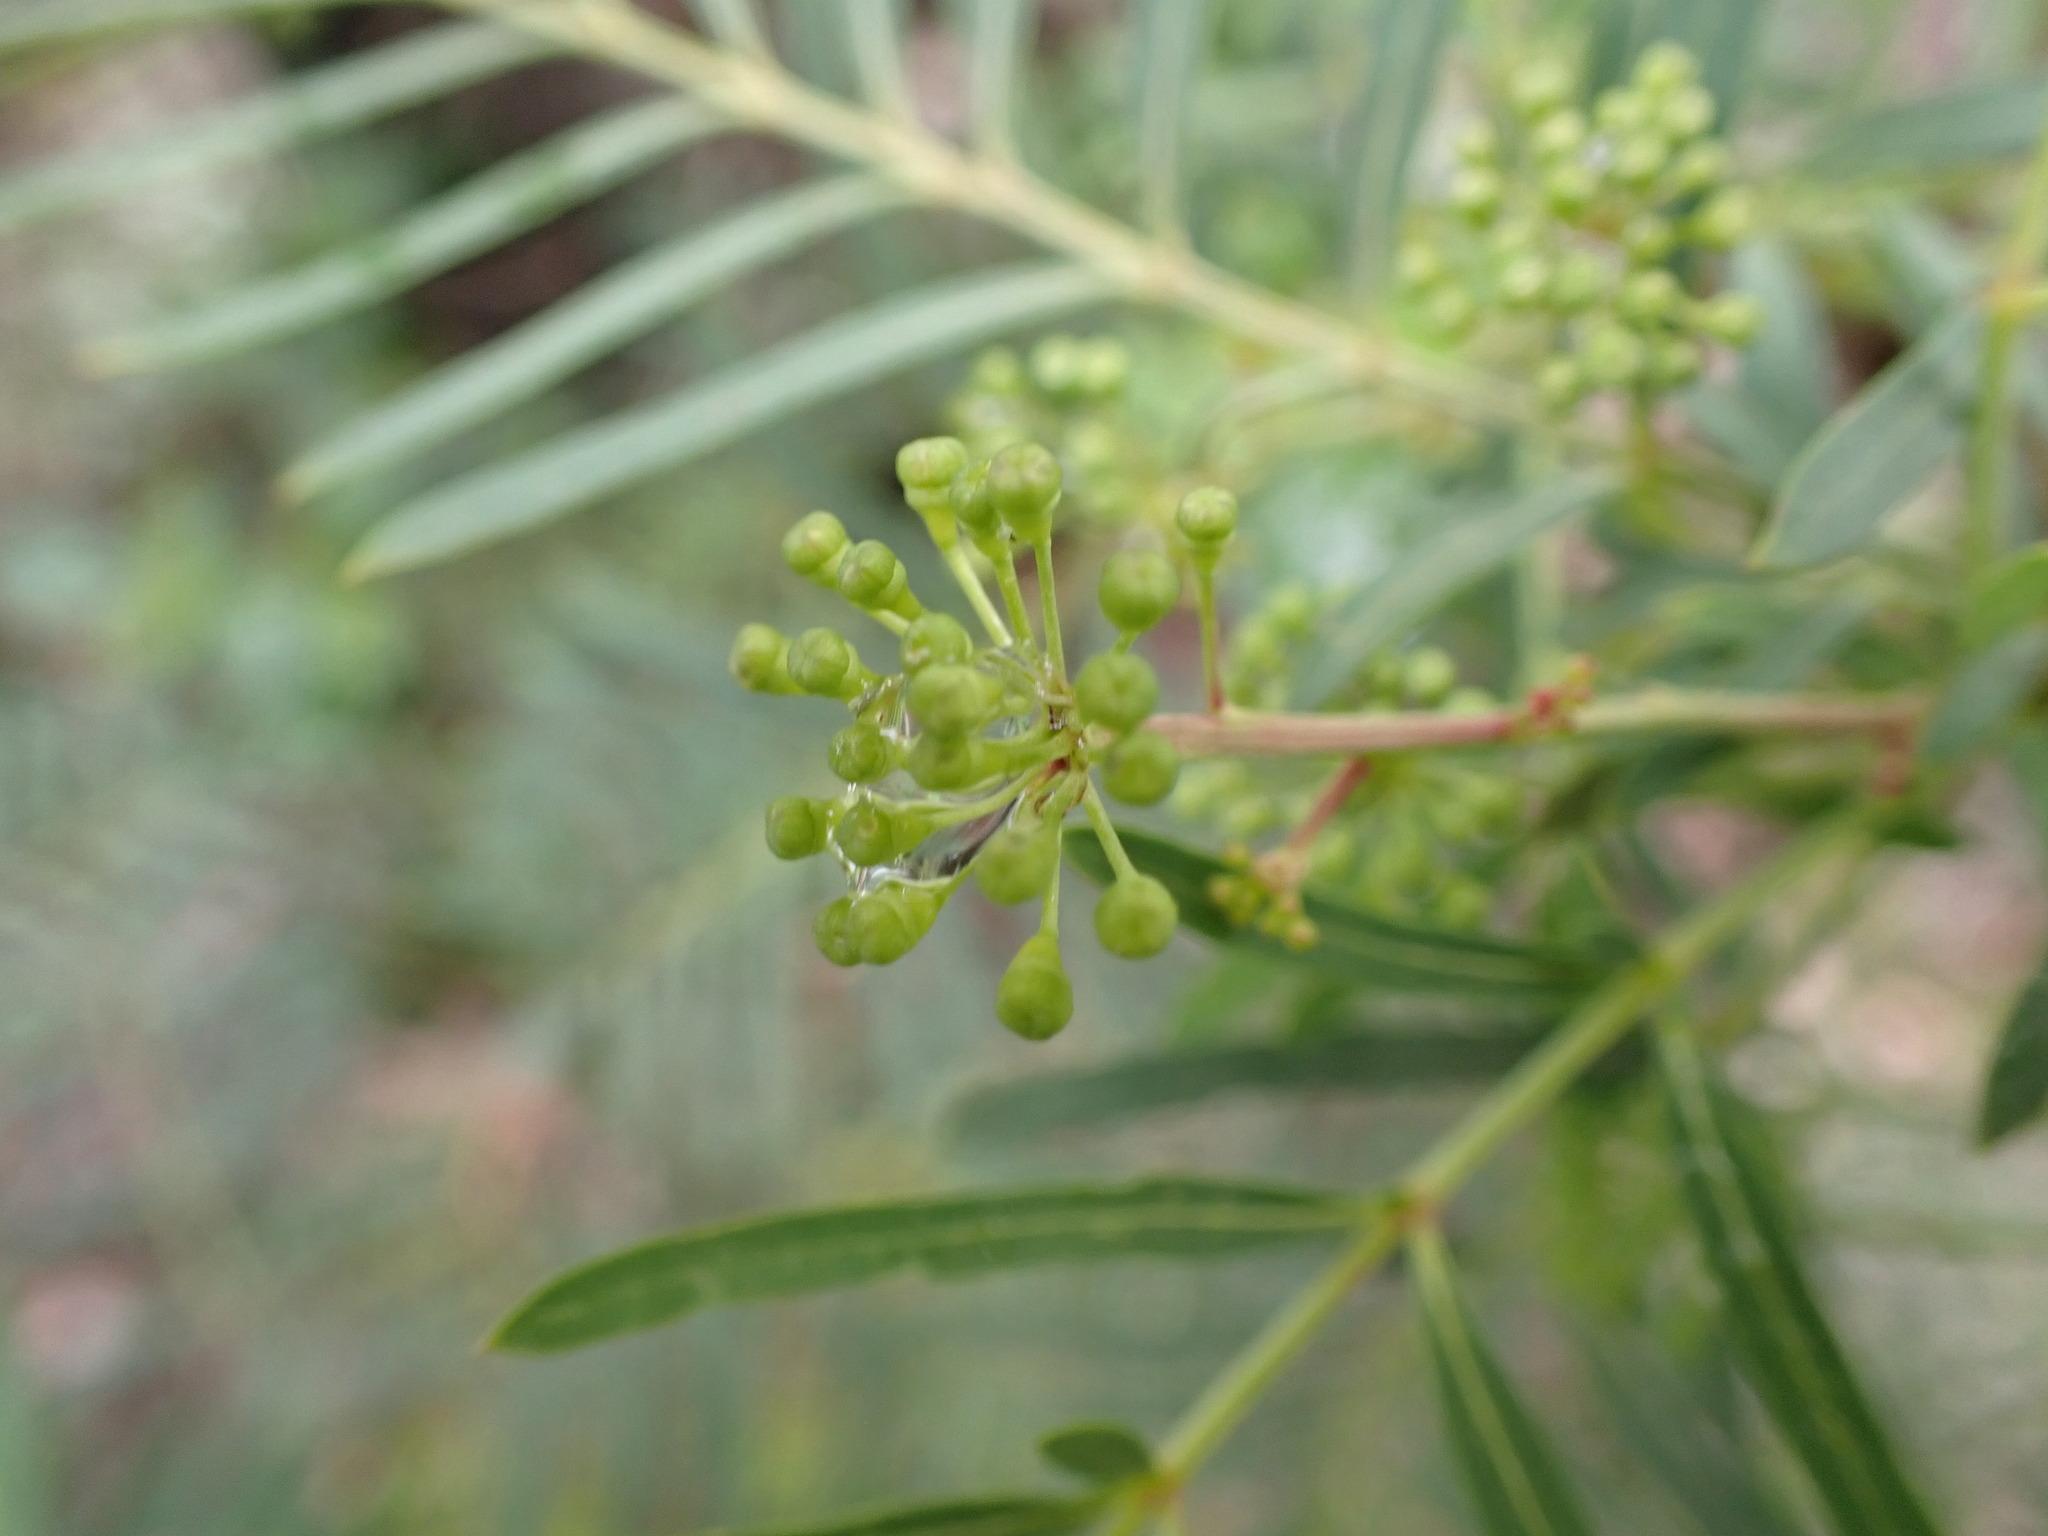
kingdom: Plantae
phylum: Tracheophyta
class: Magnoliopsida
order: Apiales
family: Araliaceae
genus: Polyscias
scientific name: Polyscias sambucifolia
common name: Elderberry-ash
